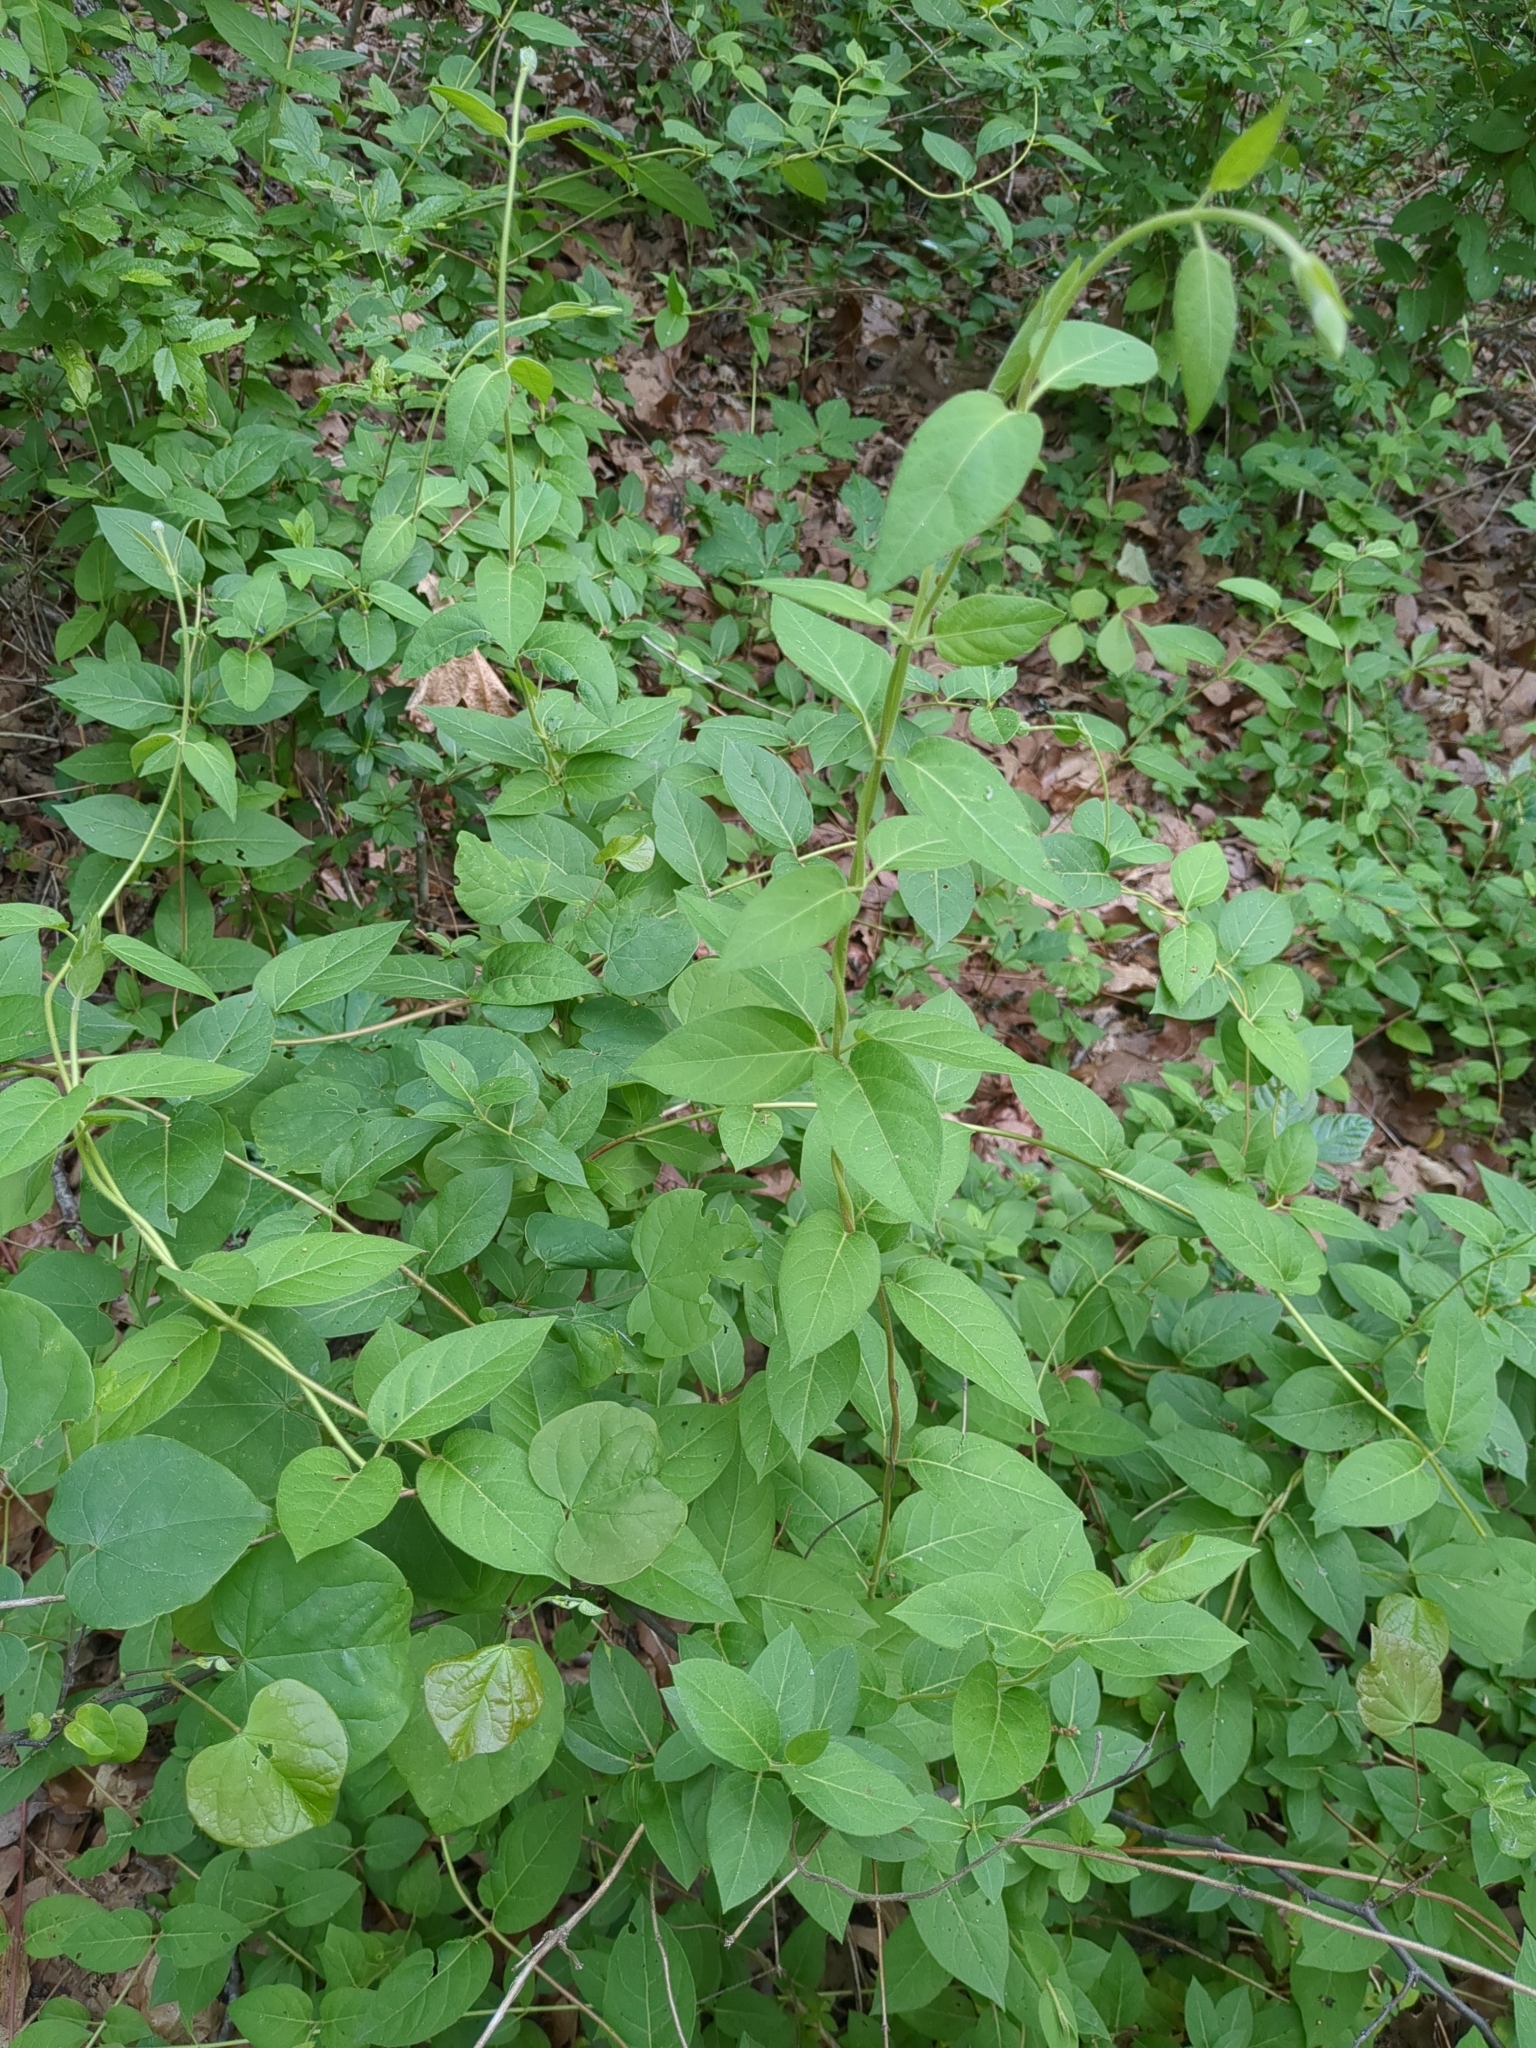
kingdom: Plantae
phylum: Tracheophyta
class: Magnoliopsida
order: Dipsacales
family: Caprifoliaceae
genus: Lonicera
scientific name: Lonicera japonica
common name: Japanese honeysuckle
